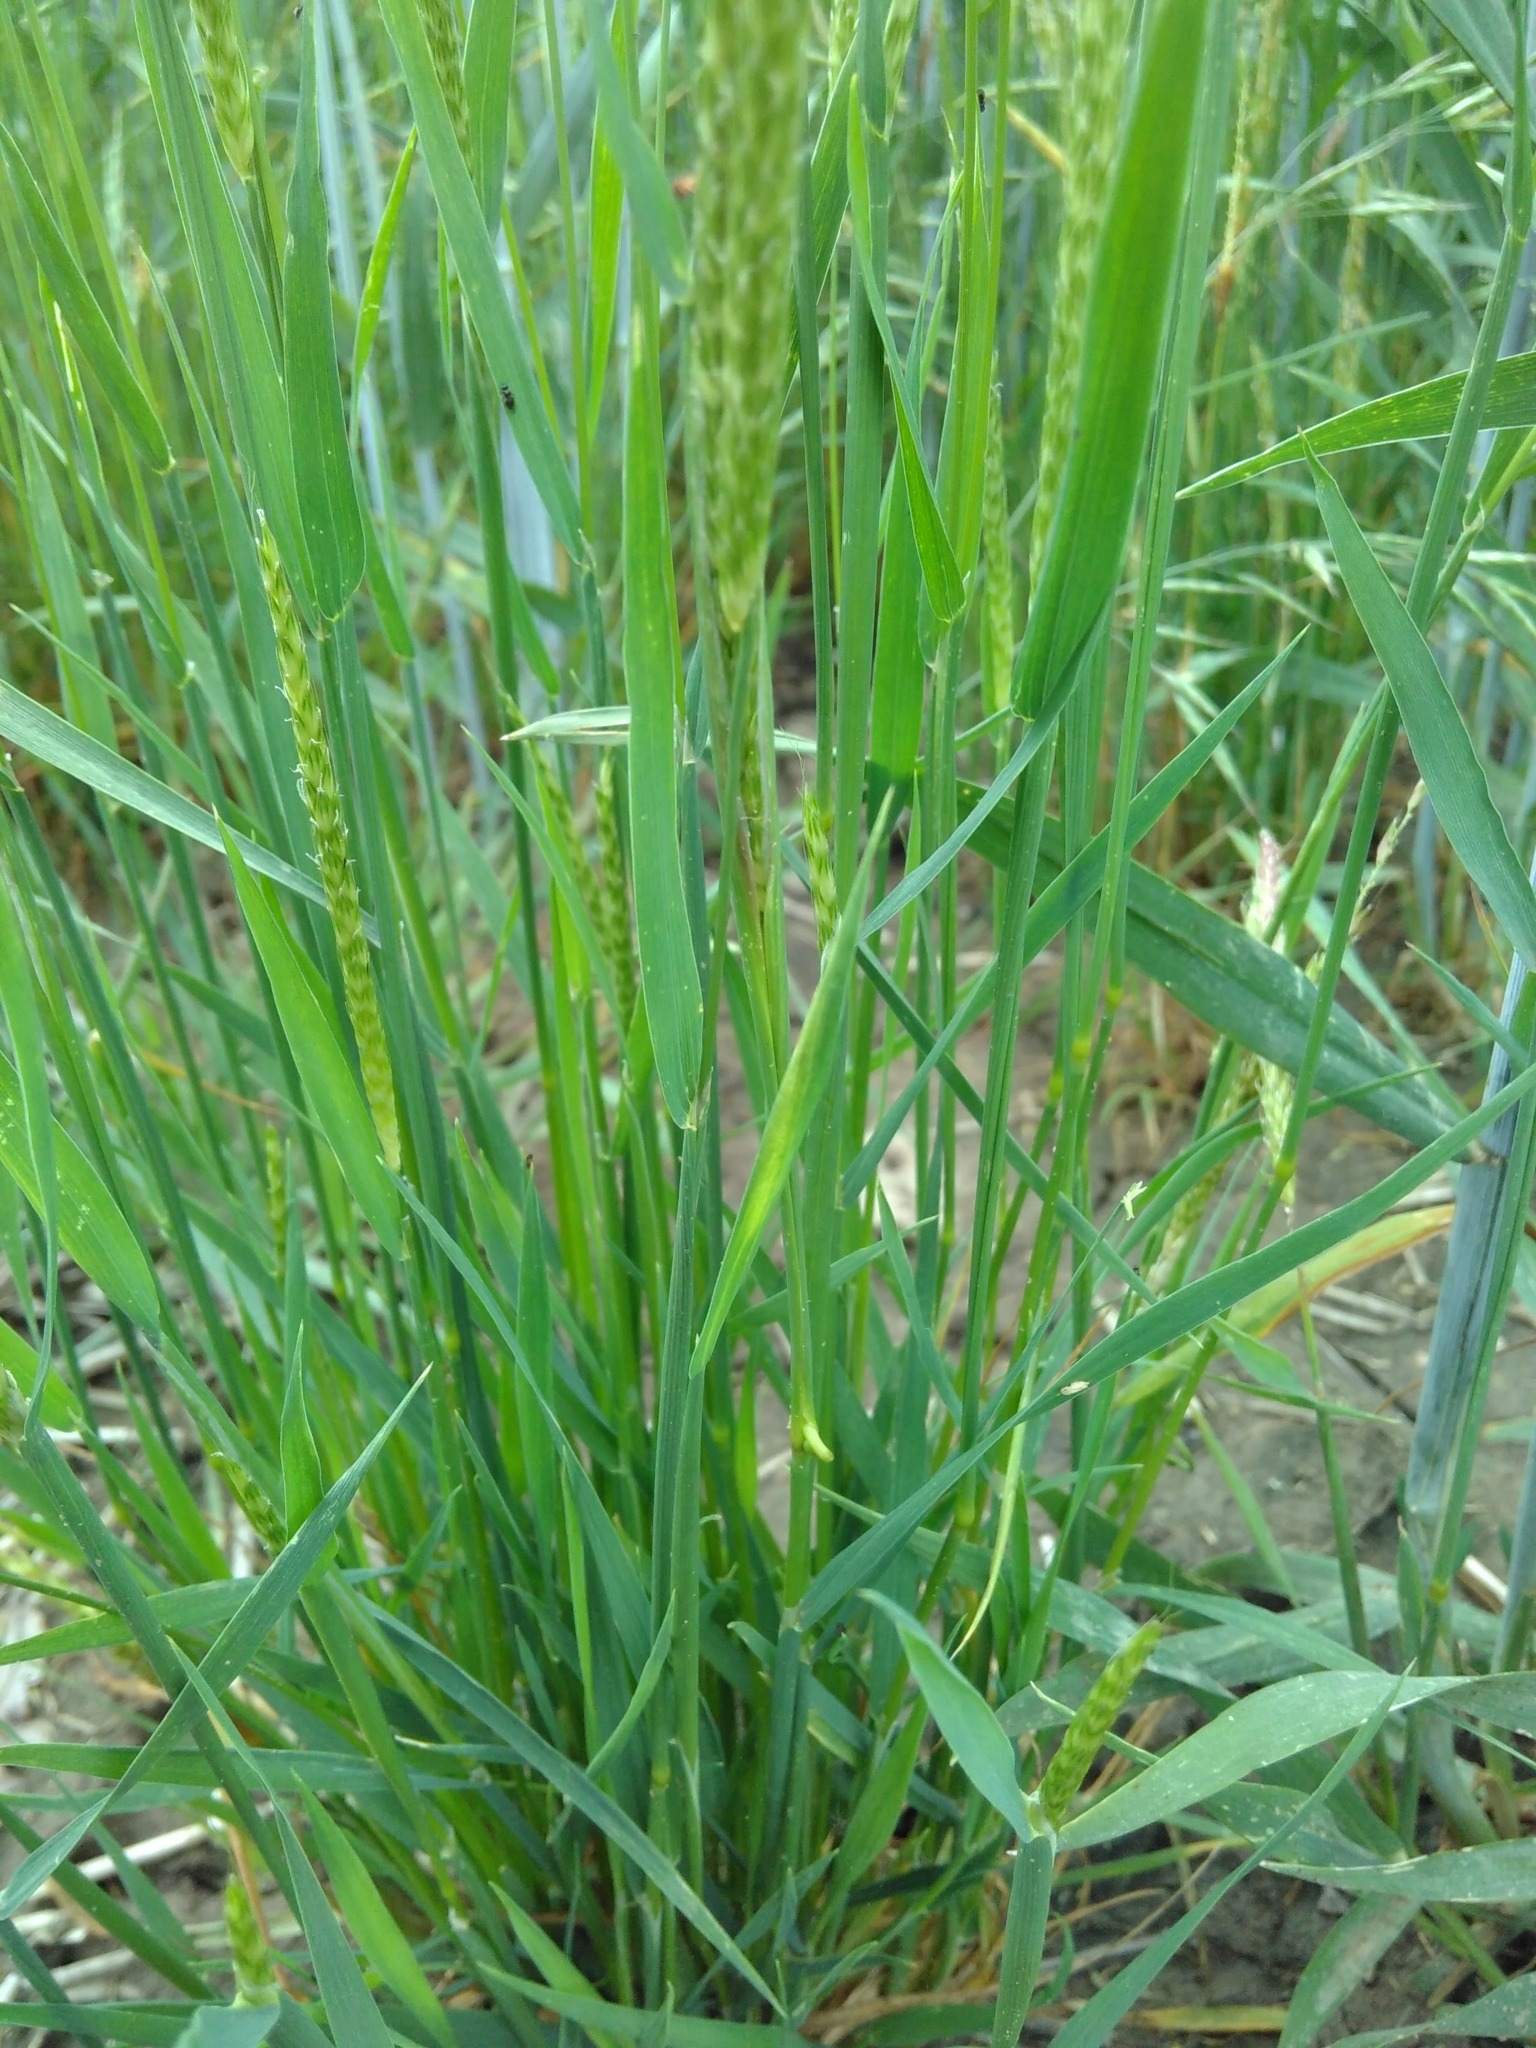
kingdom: Plantae
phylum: Tracheophyta
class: Liliopsida
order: Poales
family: Poaceae
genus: Alopecurus
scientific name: Alopecurus myosuroides
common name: Black-grass
